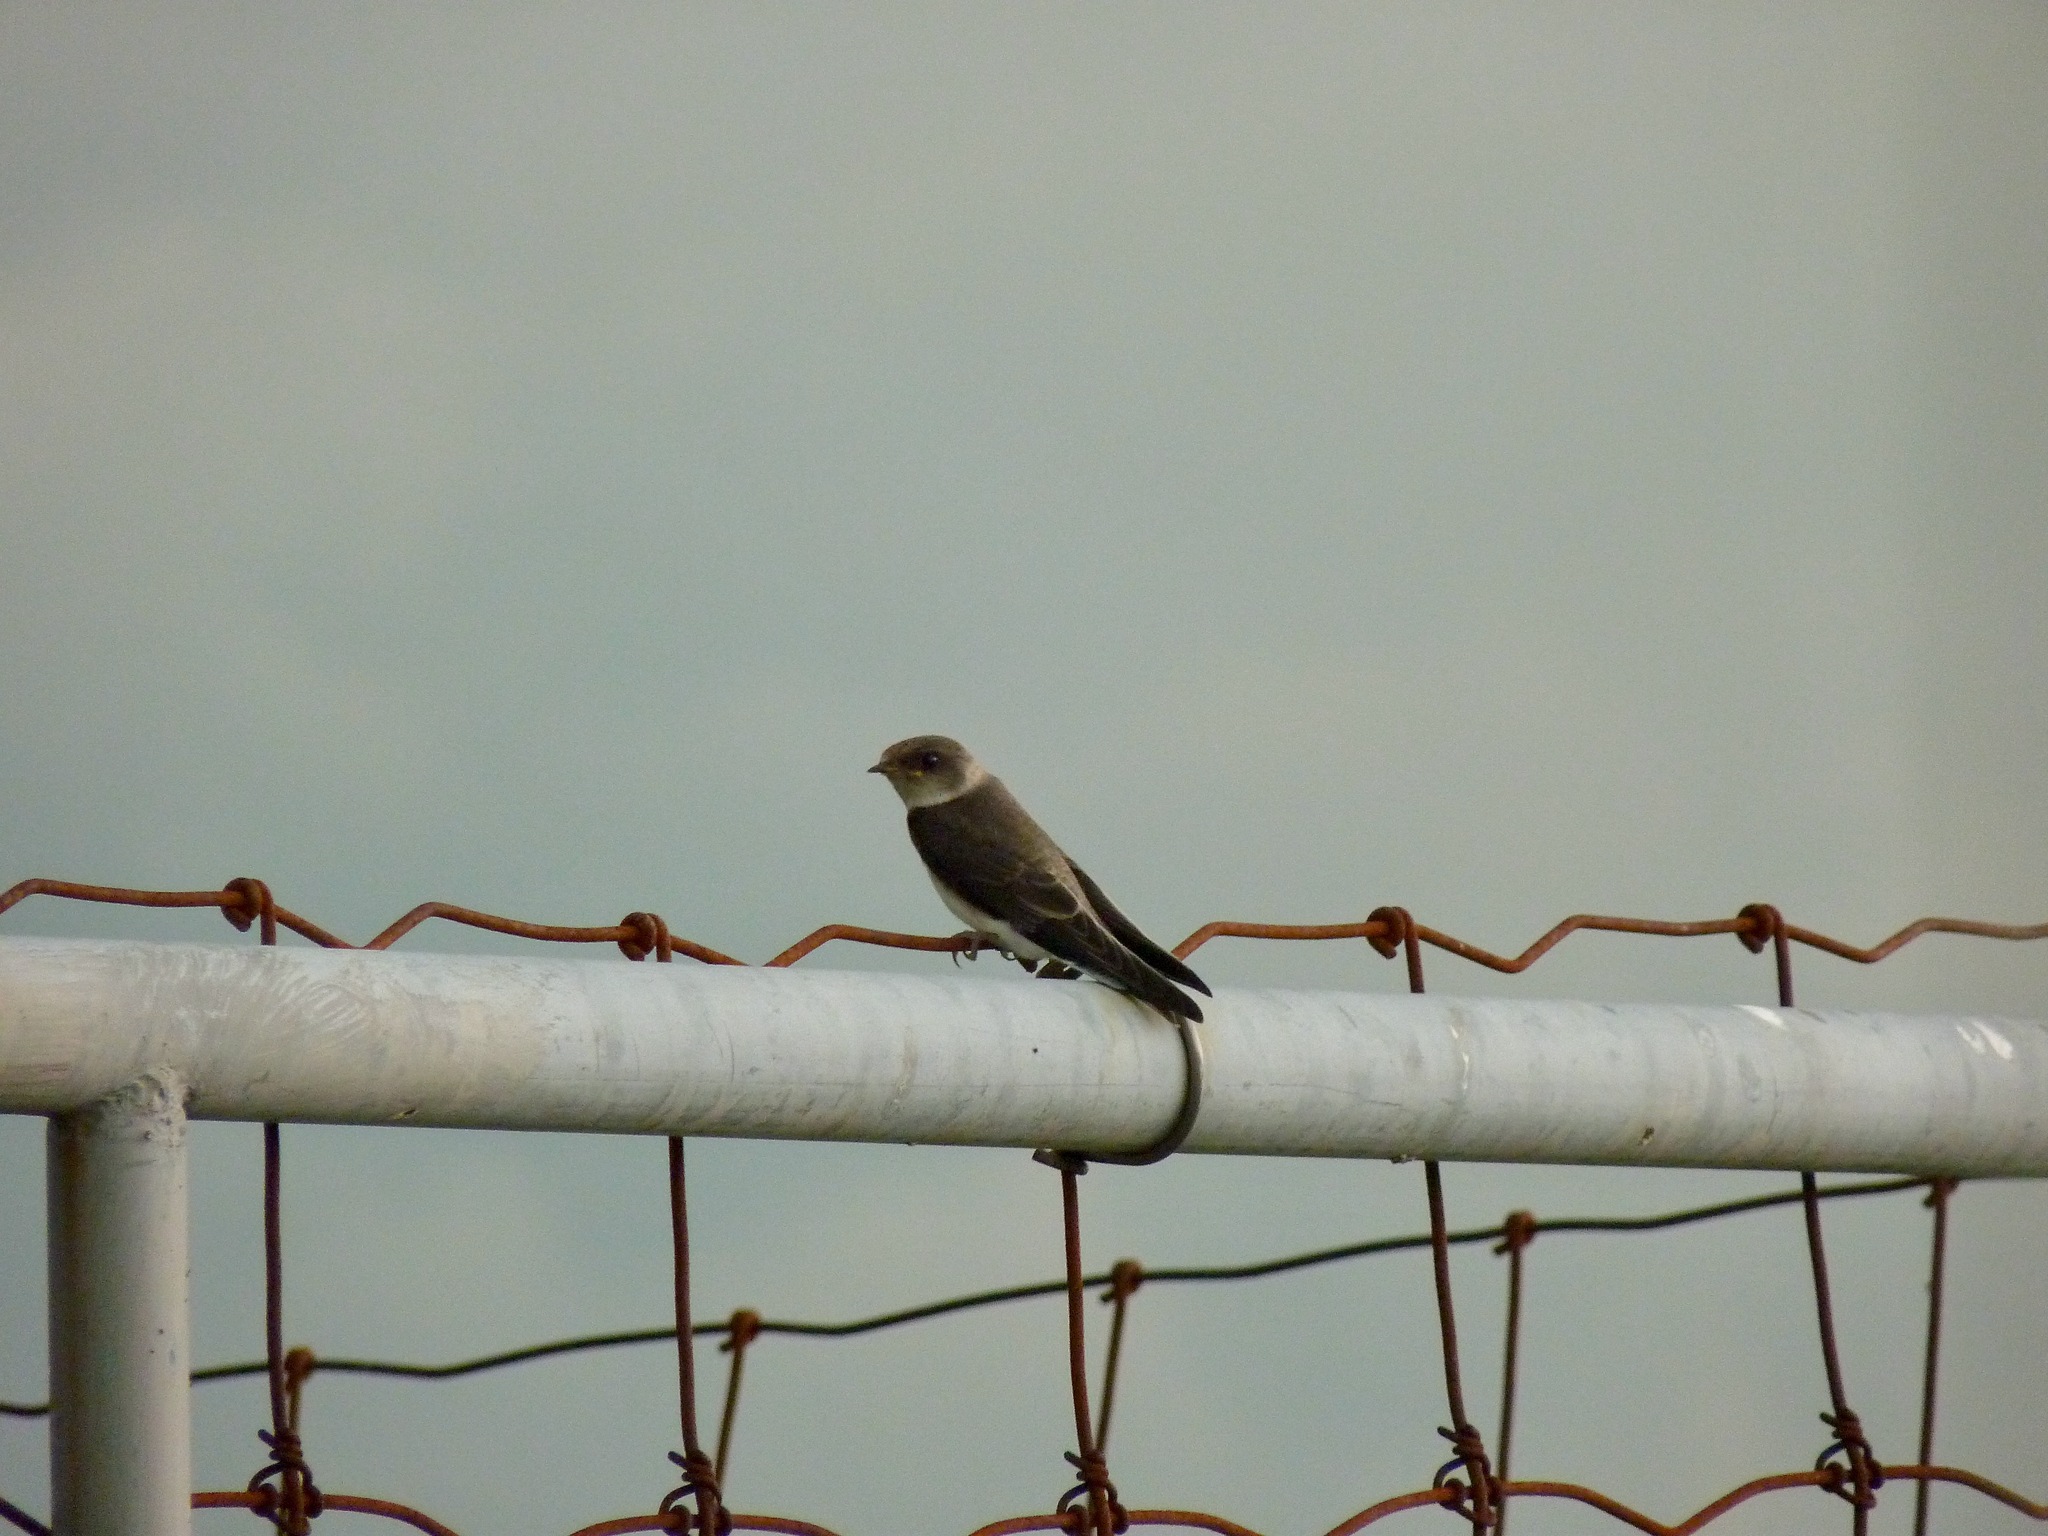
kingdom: Animalia
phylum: Chordata
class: Aves
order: Passeriformes
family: Hirundinidae
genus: Stelgidopteryx
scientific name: Stelgidopteryx serripennis
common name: Northern rough-winged swallow
